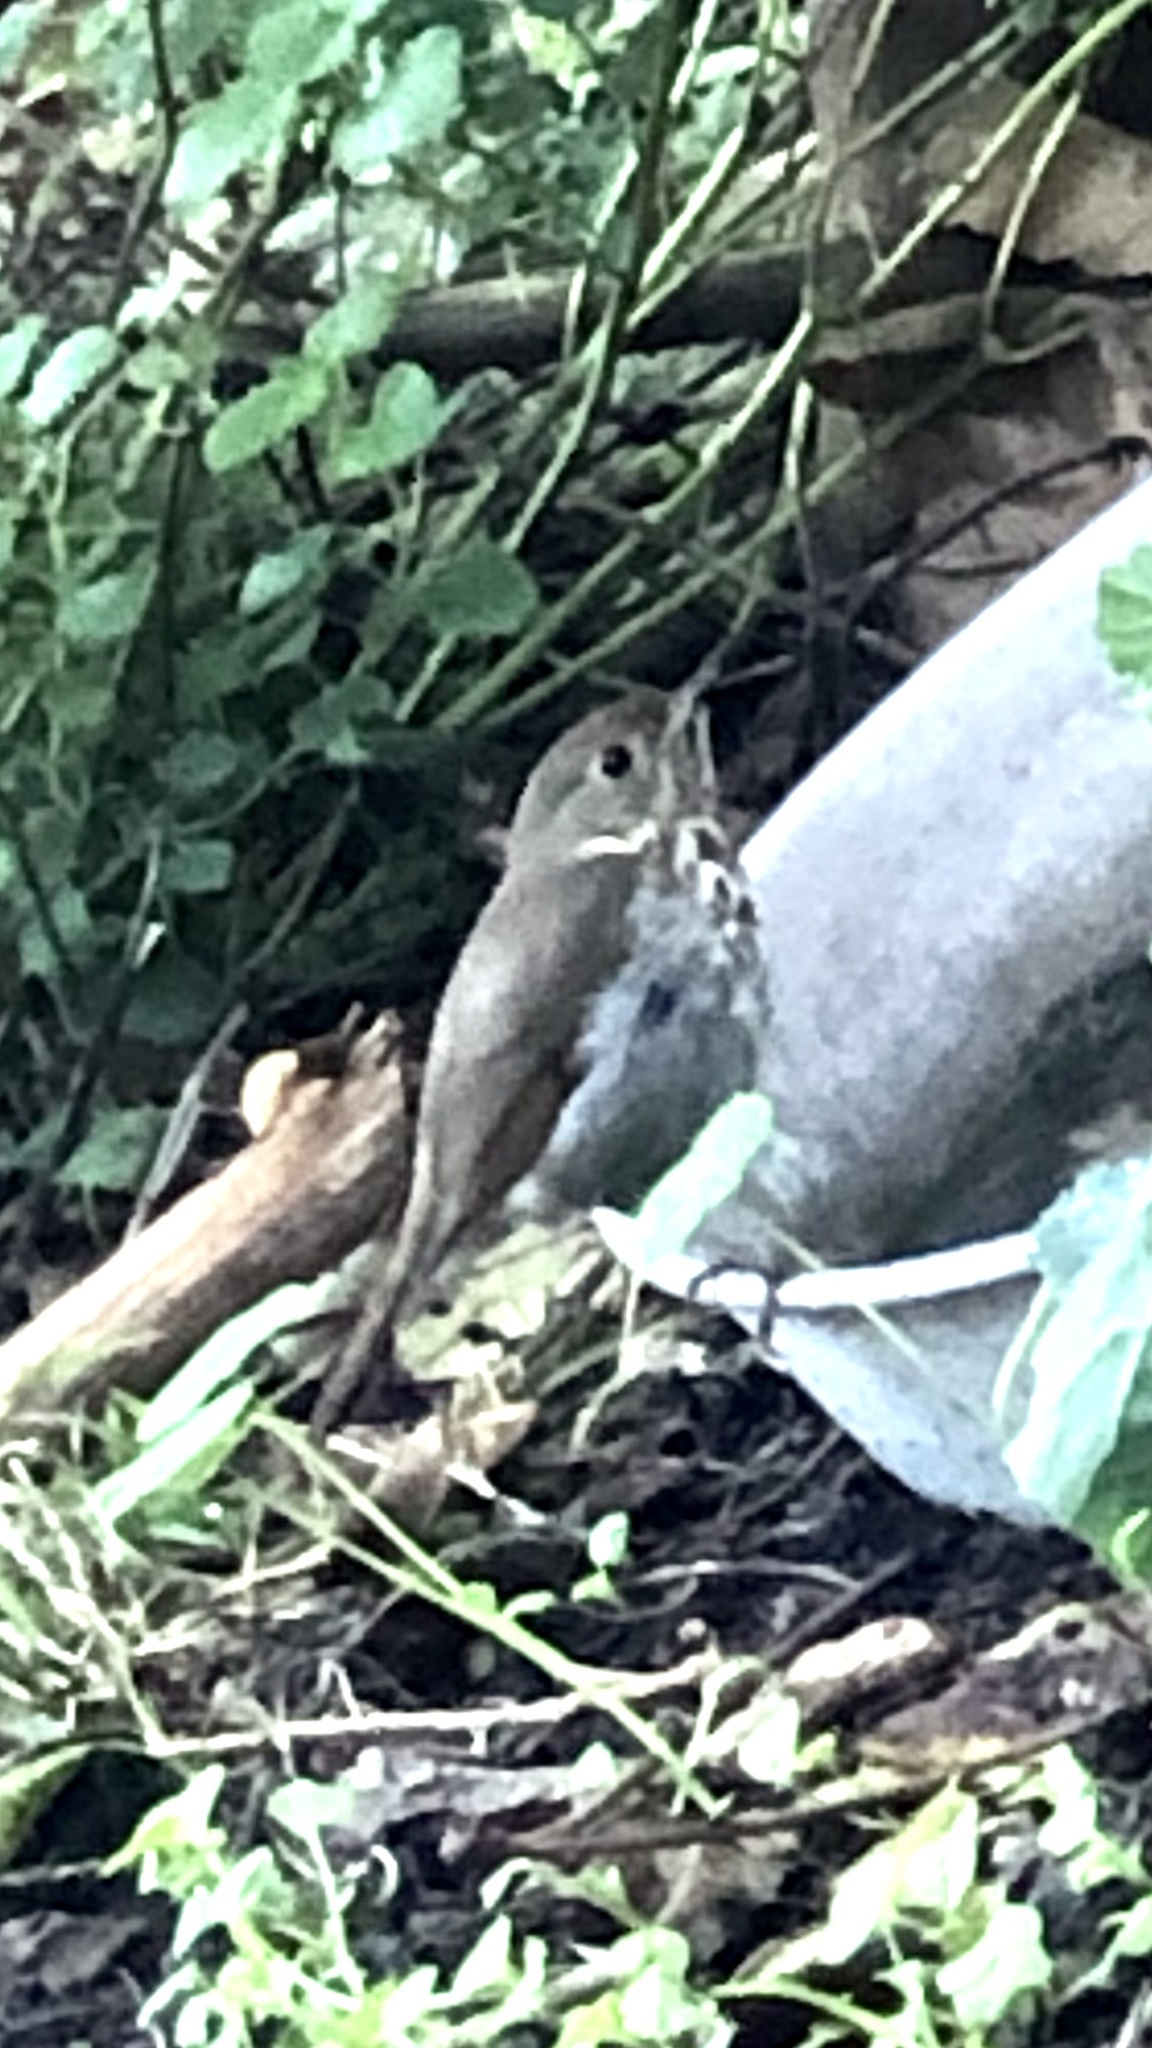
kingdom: Animalia
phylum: Chordata
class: Aves
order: Passeriformes
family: Turdidae
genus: Catharus
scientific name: Catharus guttatus
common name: Hermit thrush
